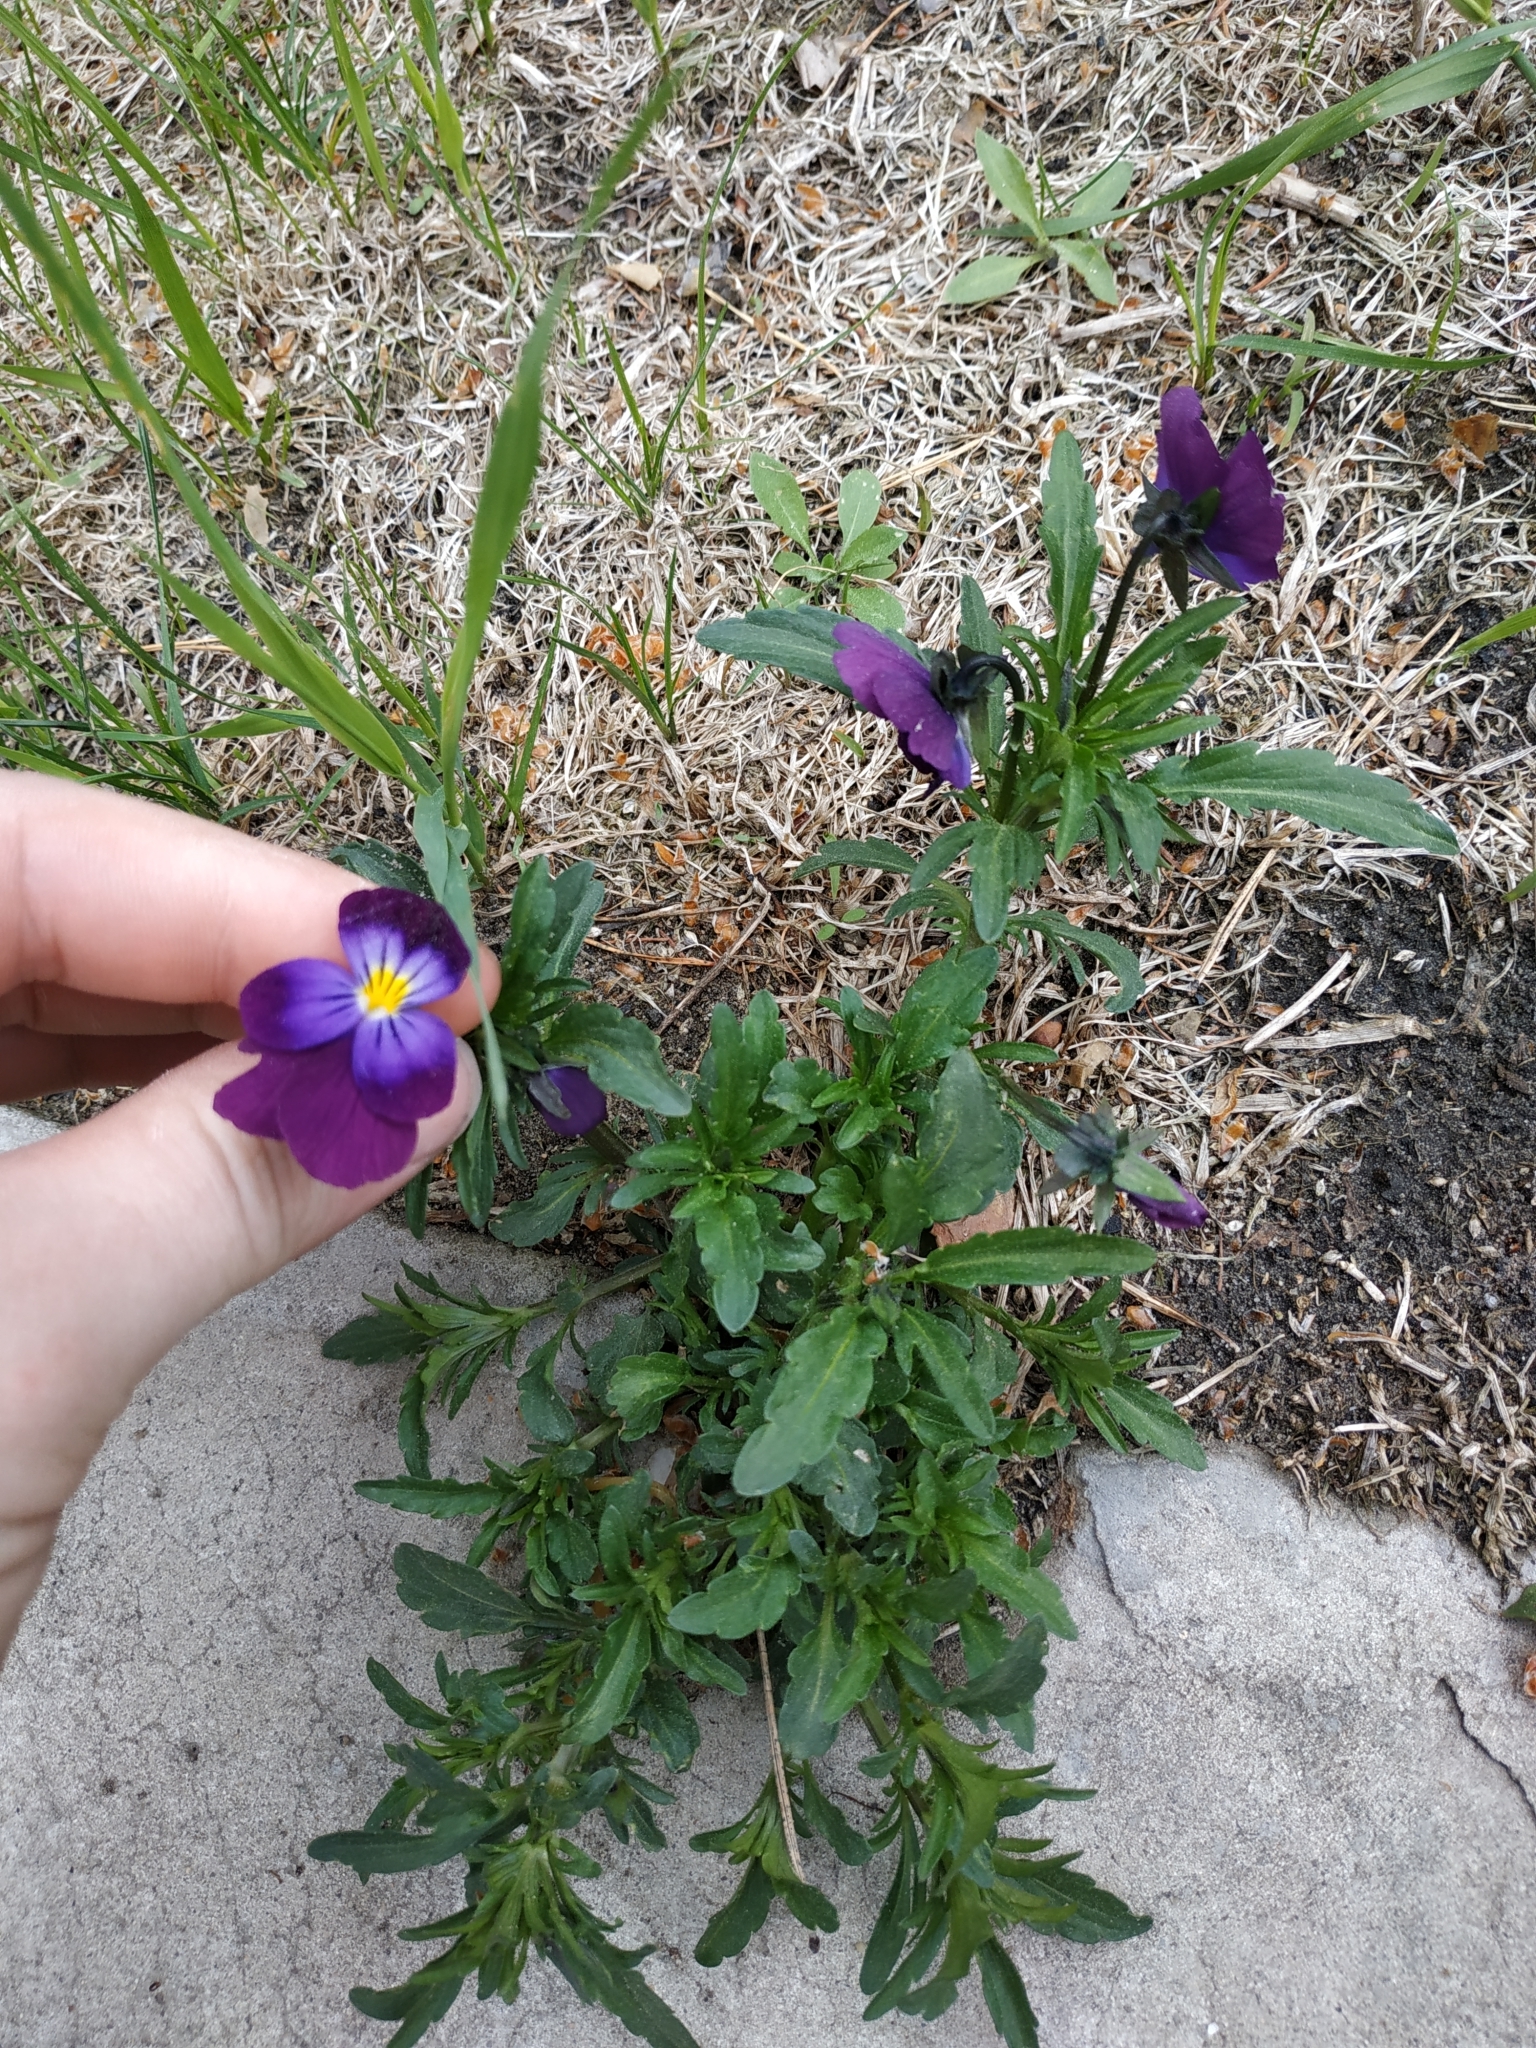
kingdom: Plantae
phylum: Tracheophyta
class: Magnoliopsida
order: Malpighiales
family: Violaceae
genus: Viola
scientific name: Viola wittrockiana
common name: Garden pansy
